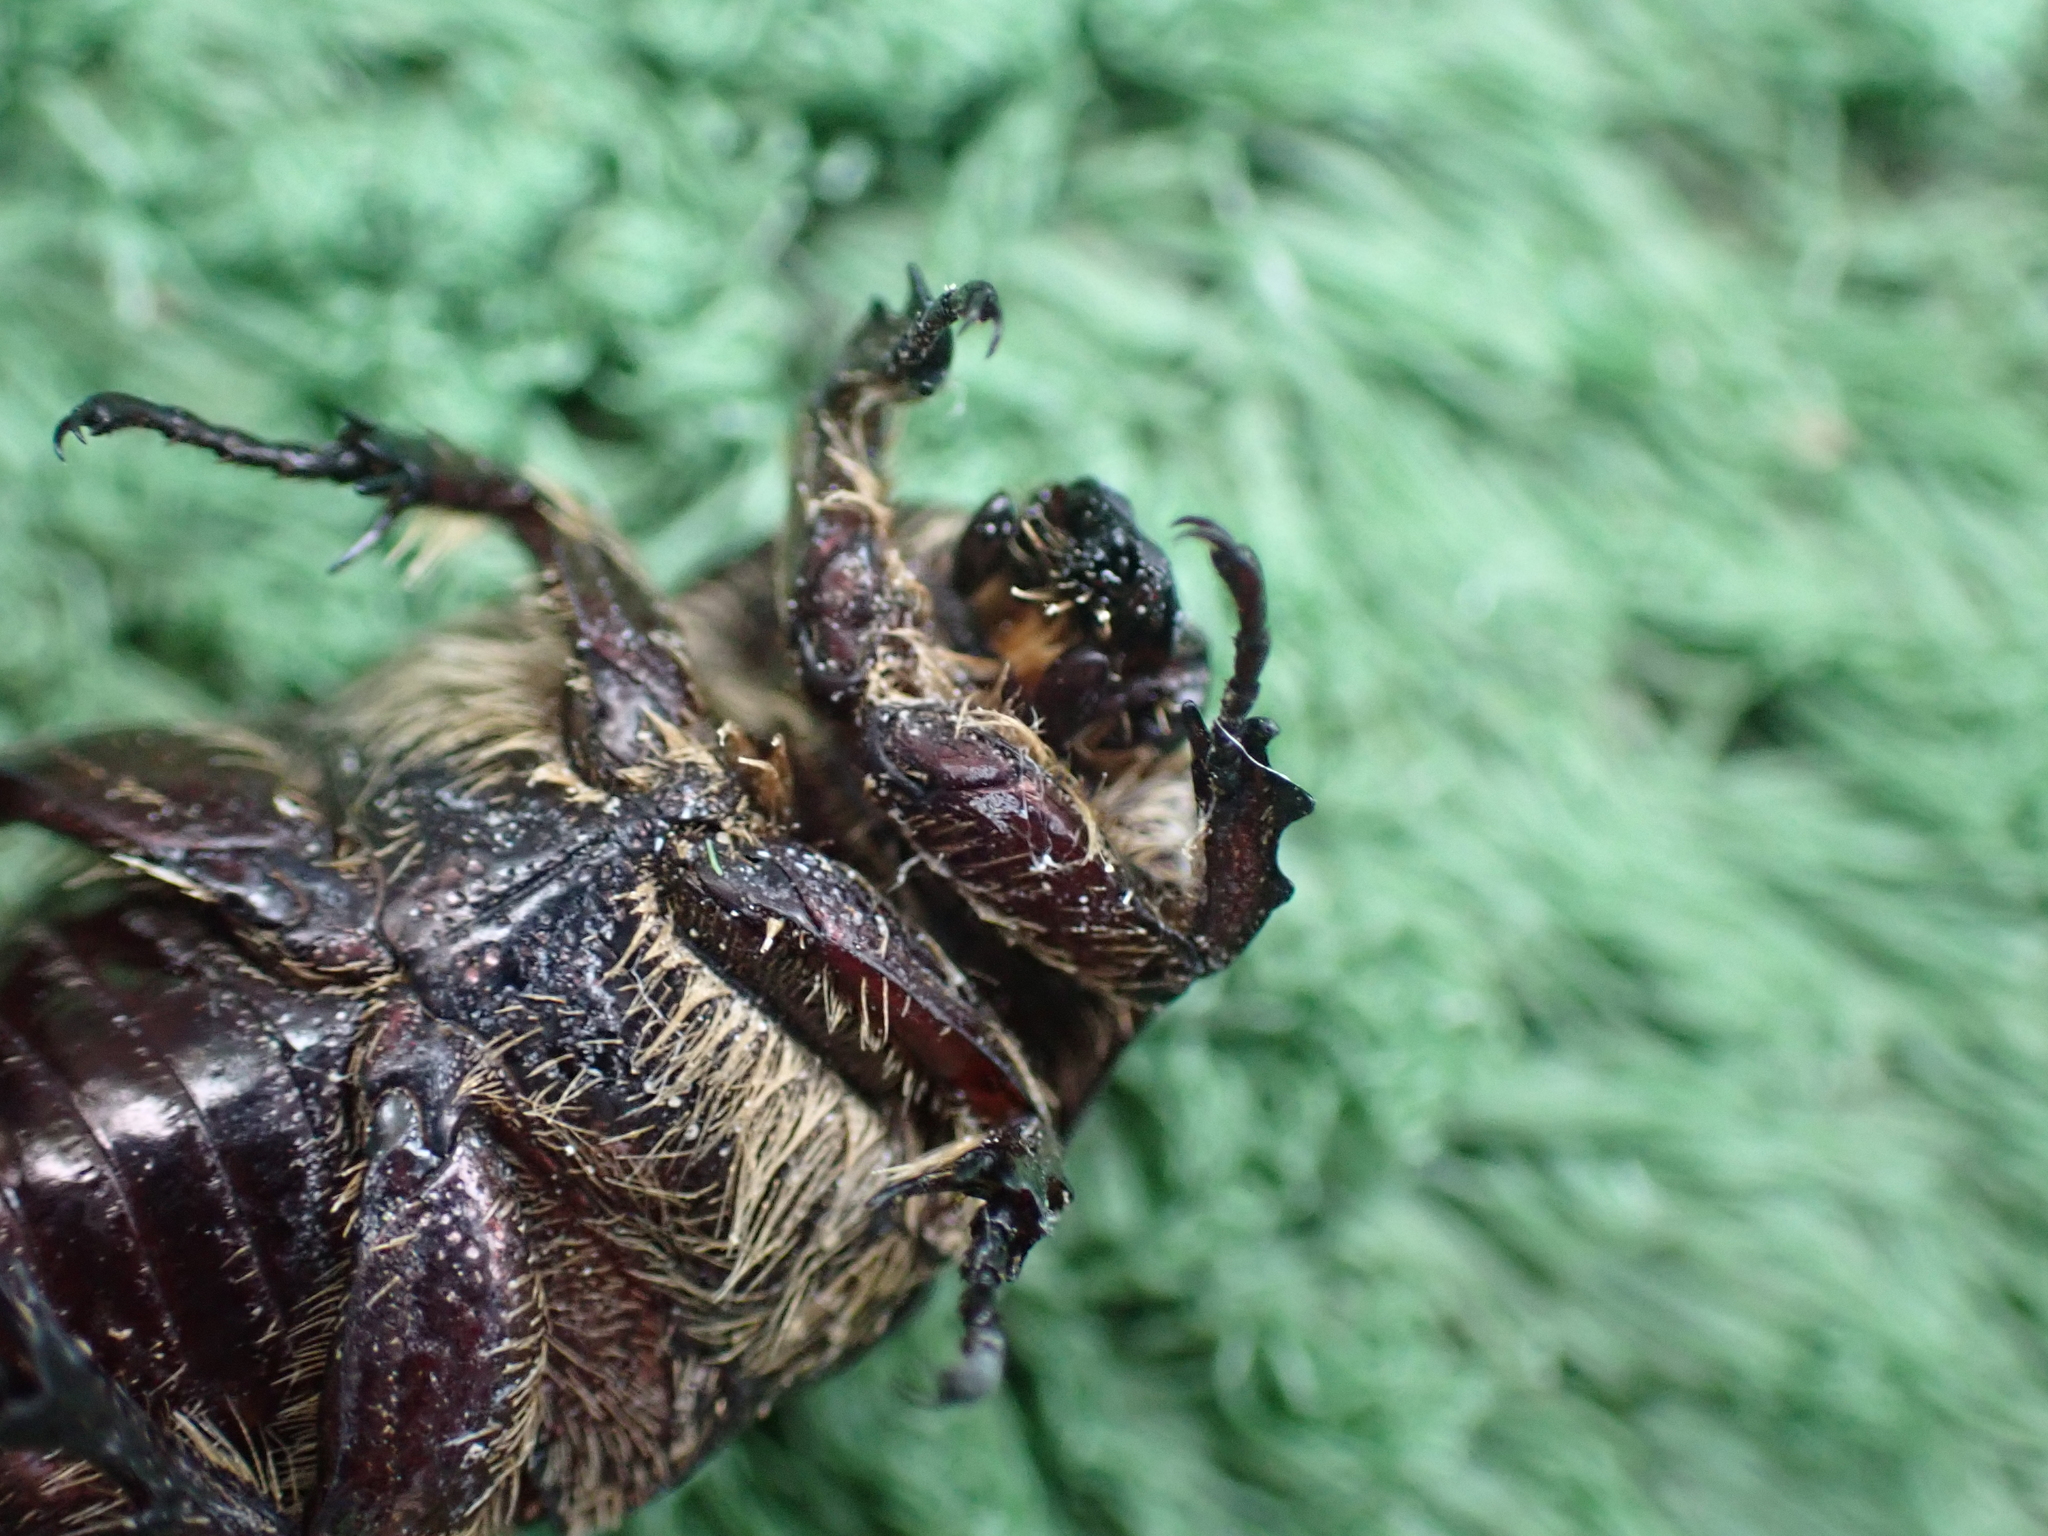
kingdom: Animalia
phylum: Arthropoda
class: Insecta
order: Coleoptera
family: Scarabaeidae
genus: Protaetia
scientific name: Protaetia oblonga
